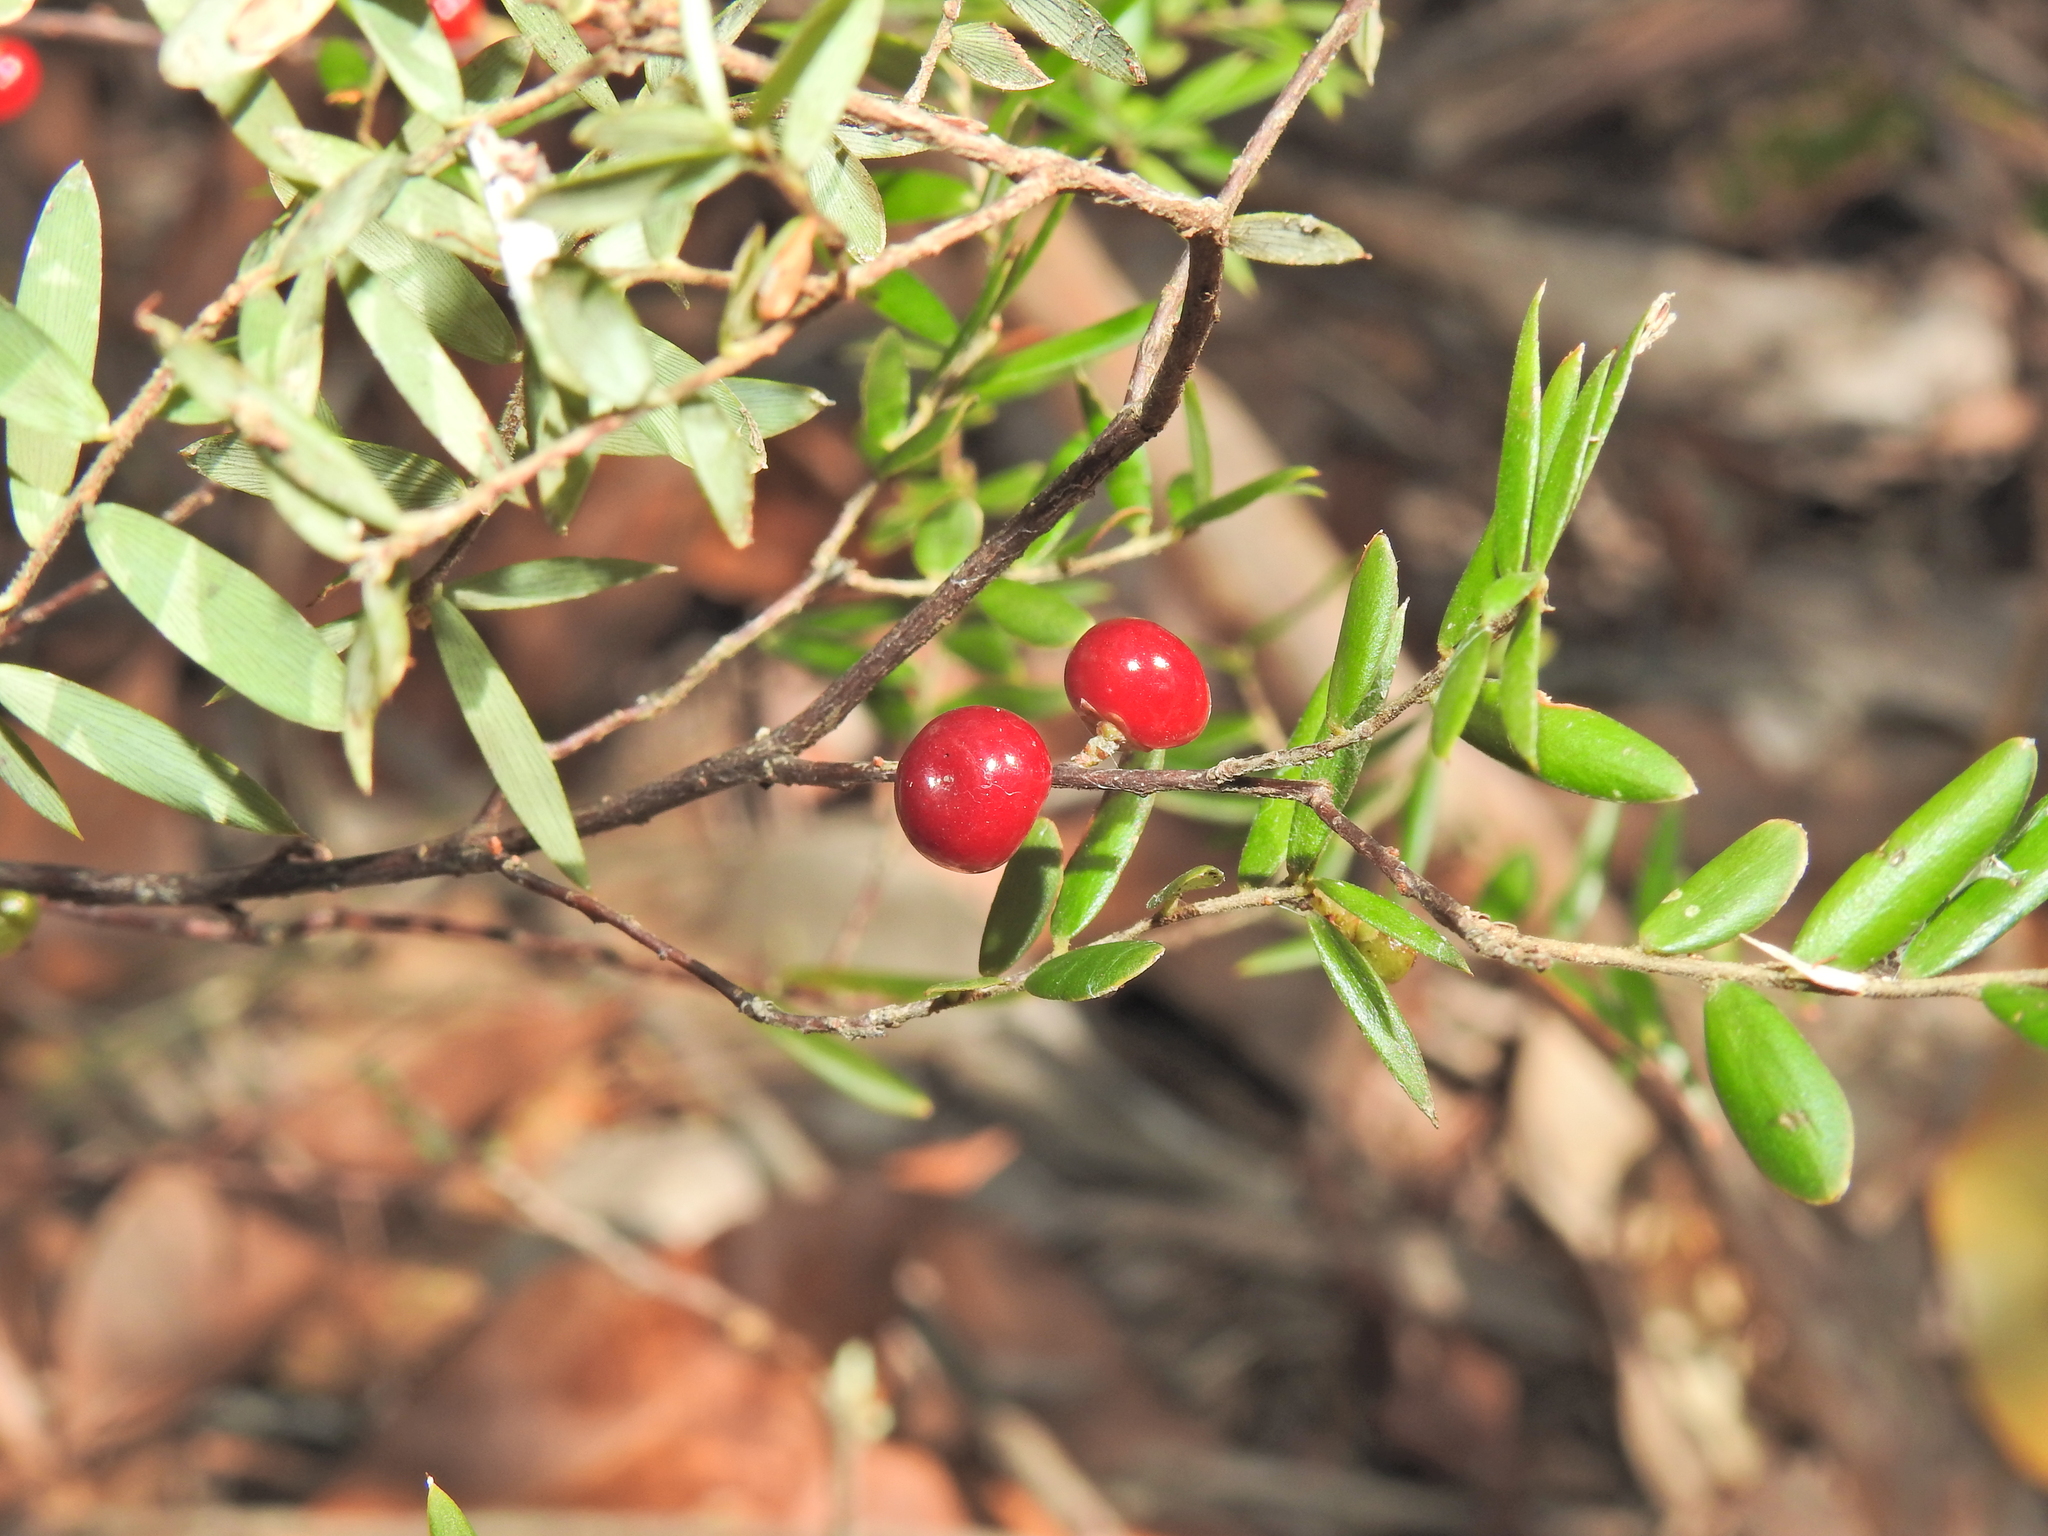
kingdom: Plantae
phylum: Tracheophyta
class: Magnoliopsida
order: Ericales
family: Ericaceae
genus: Acrotriche
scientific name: Acrotriche aggregata
